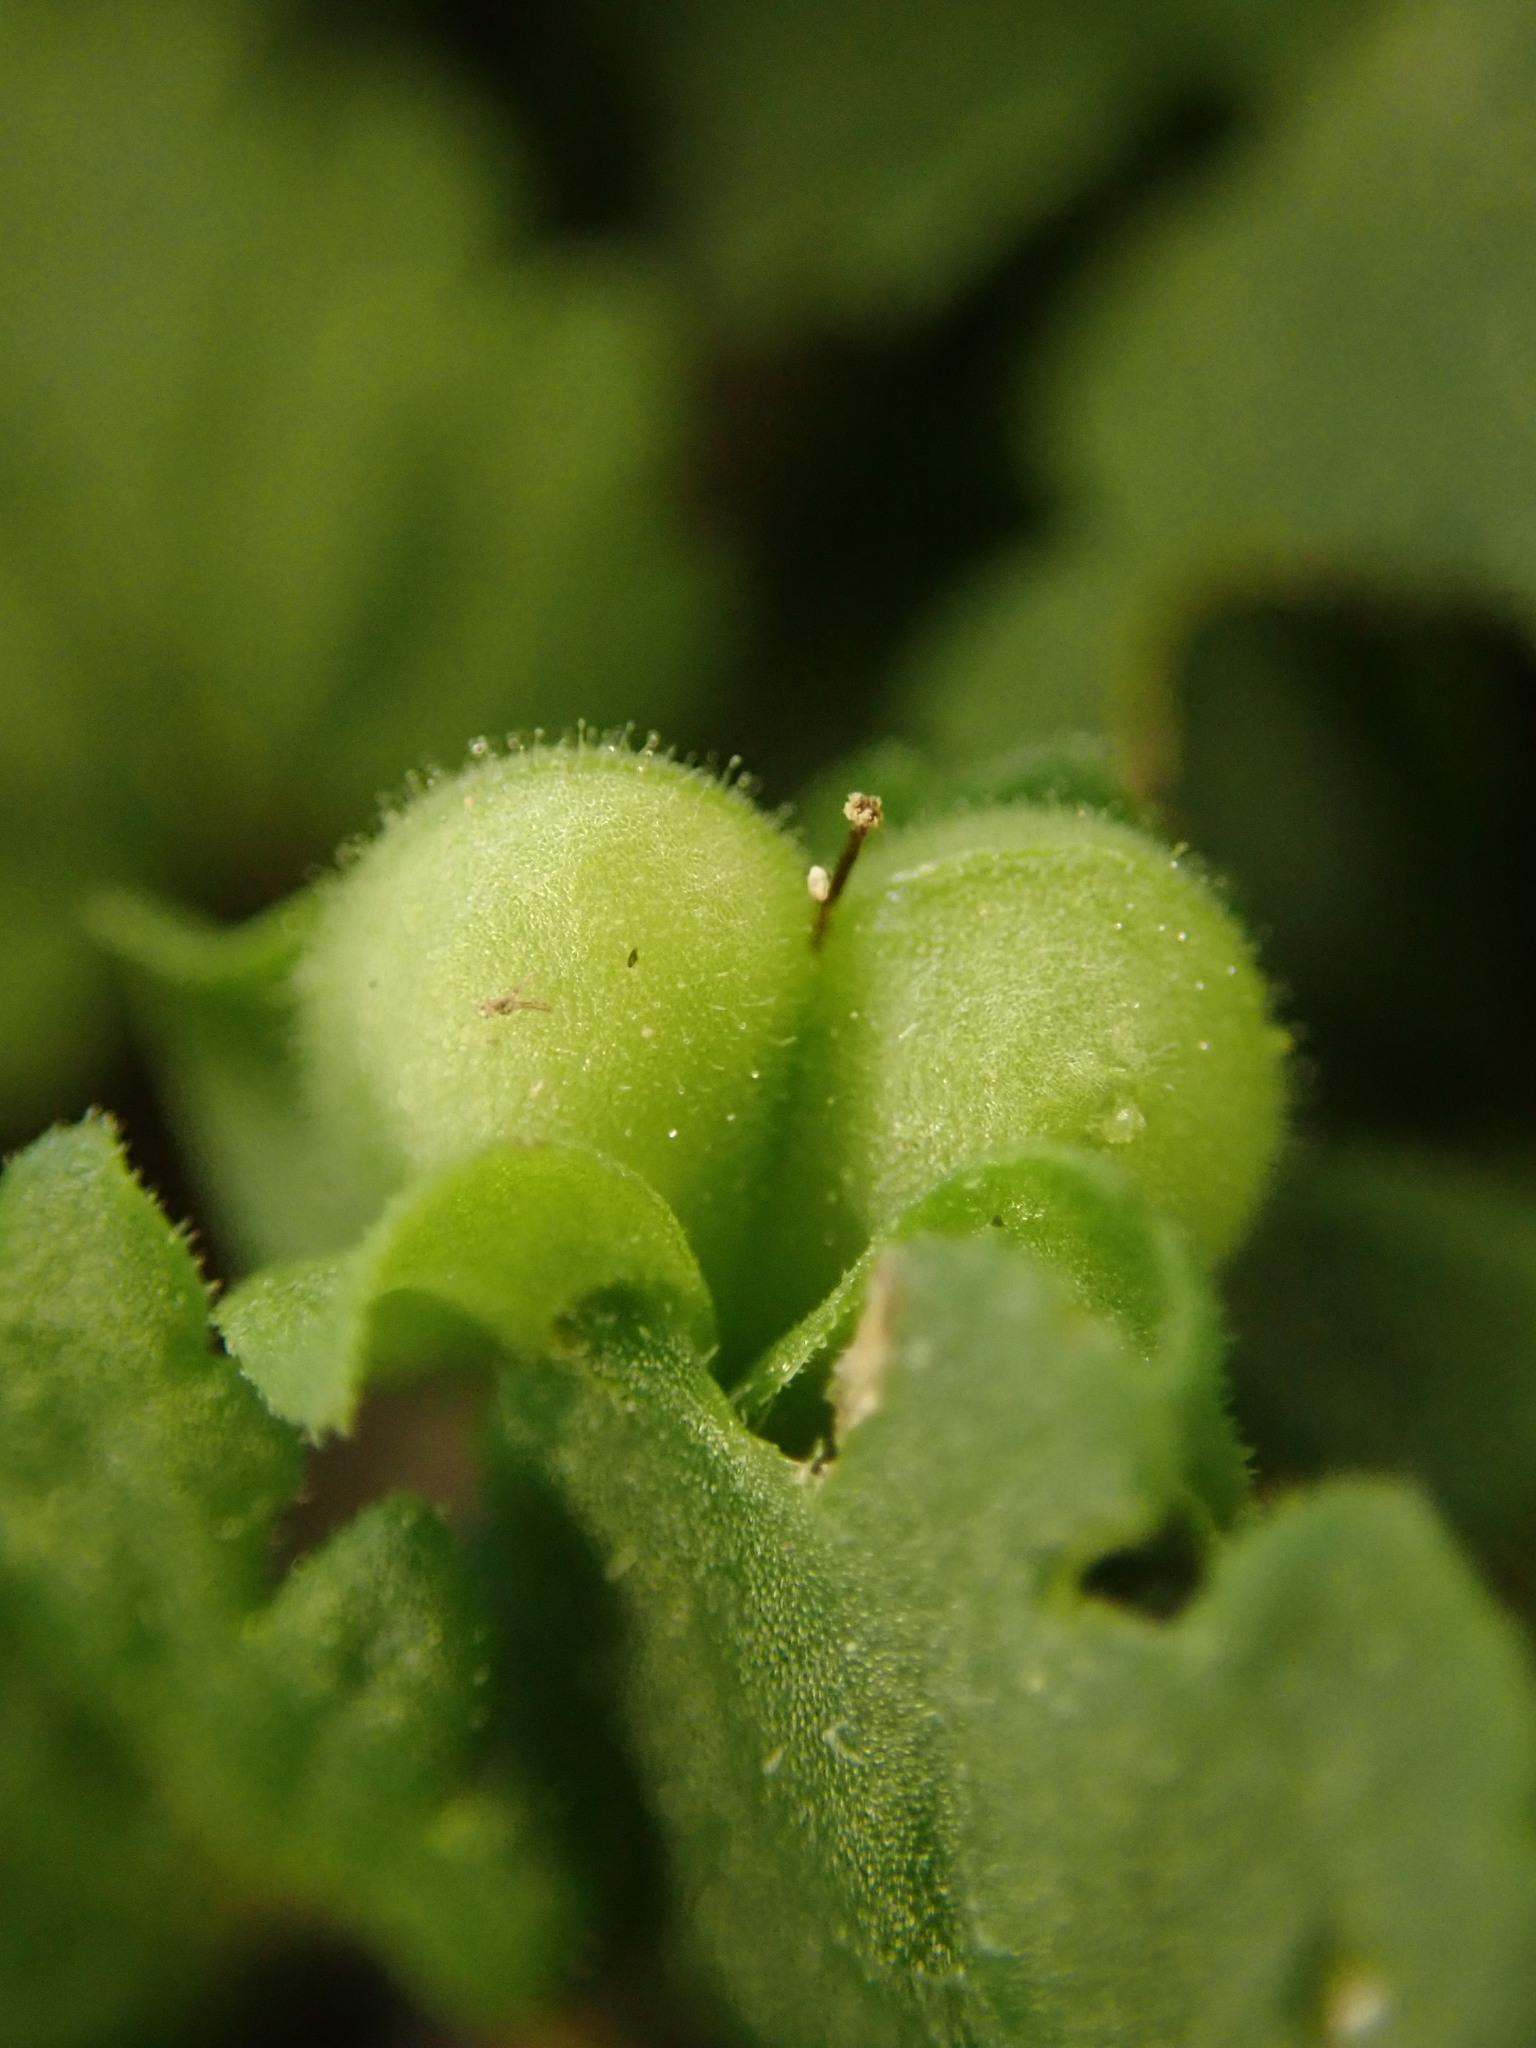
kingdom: Plantae
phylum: Tracheophyta
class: Magnoliopsida
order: Lamiales
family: Plantaginaceae
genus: Veronica
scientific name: Veronica polita
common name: Grey field-speedwell
